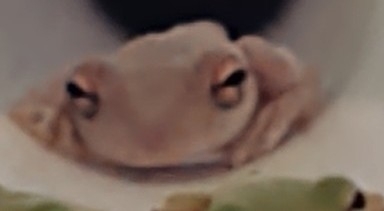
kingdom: Animalia
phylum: Chordata
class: Amphibia
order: Anura
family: Hylidae
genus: Osteopilus
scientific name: Osteopilus septentrionalis
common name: Cuban treefrog
